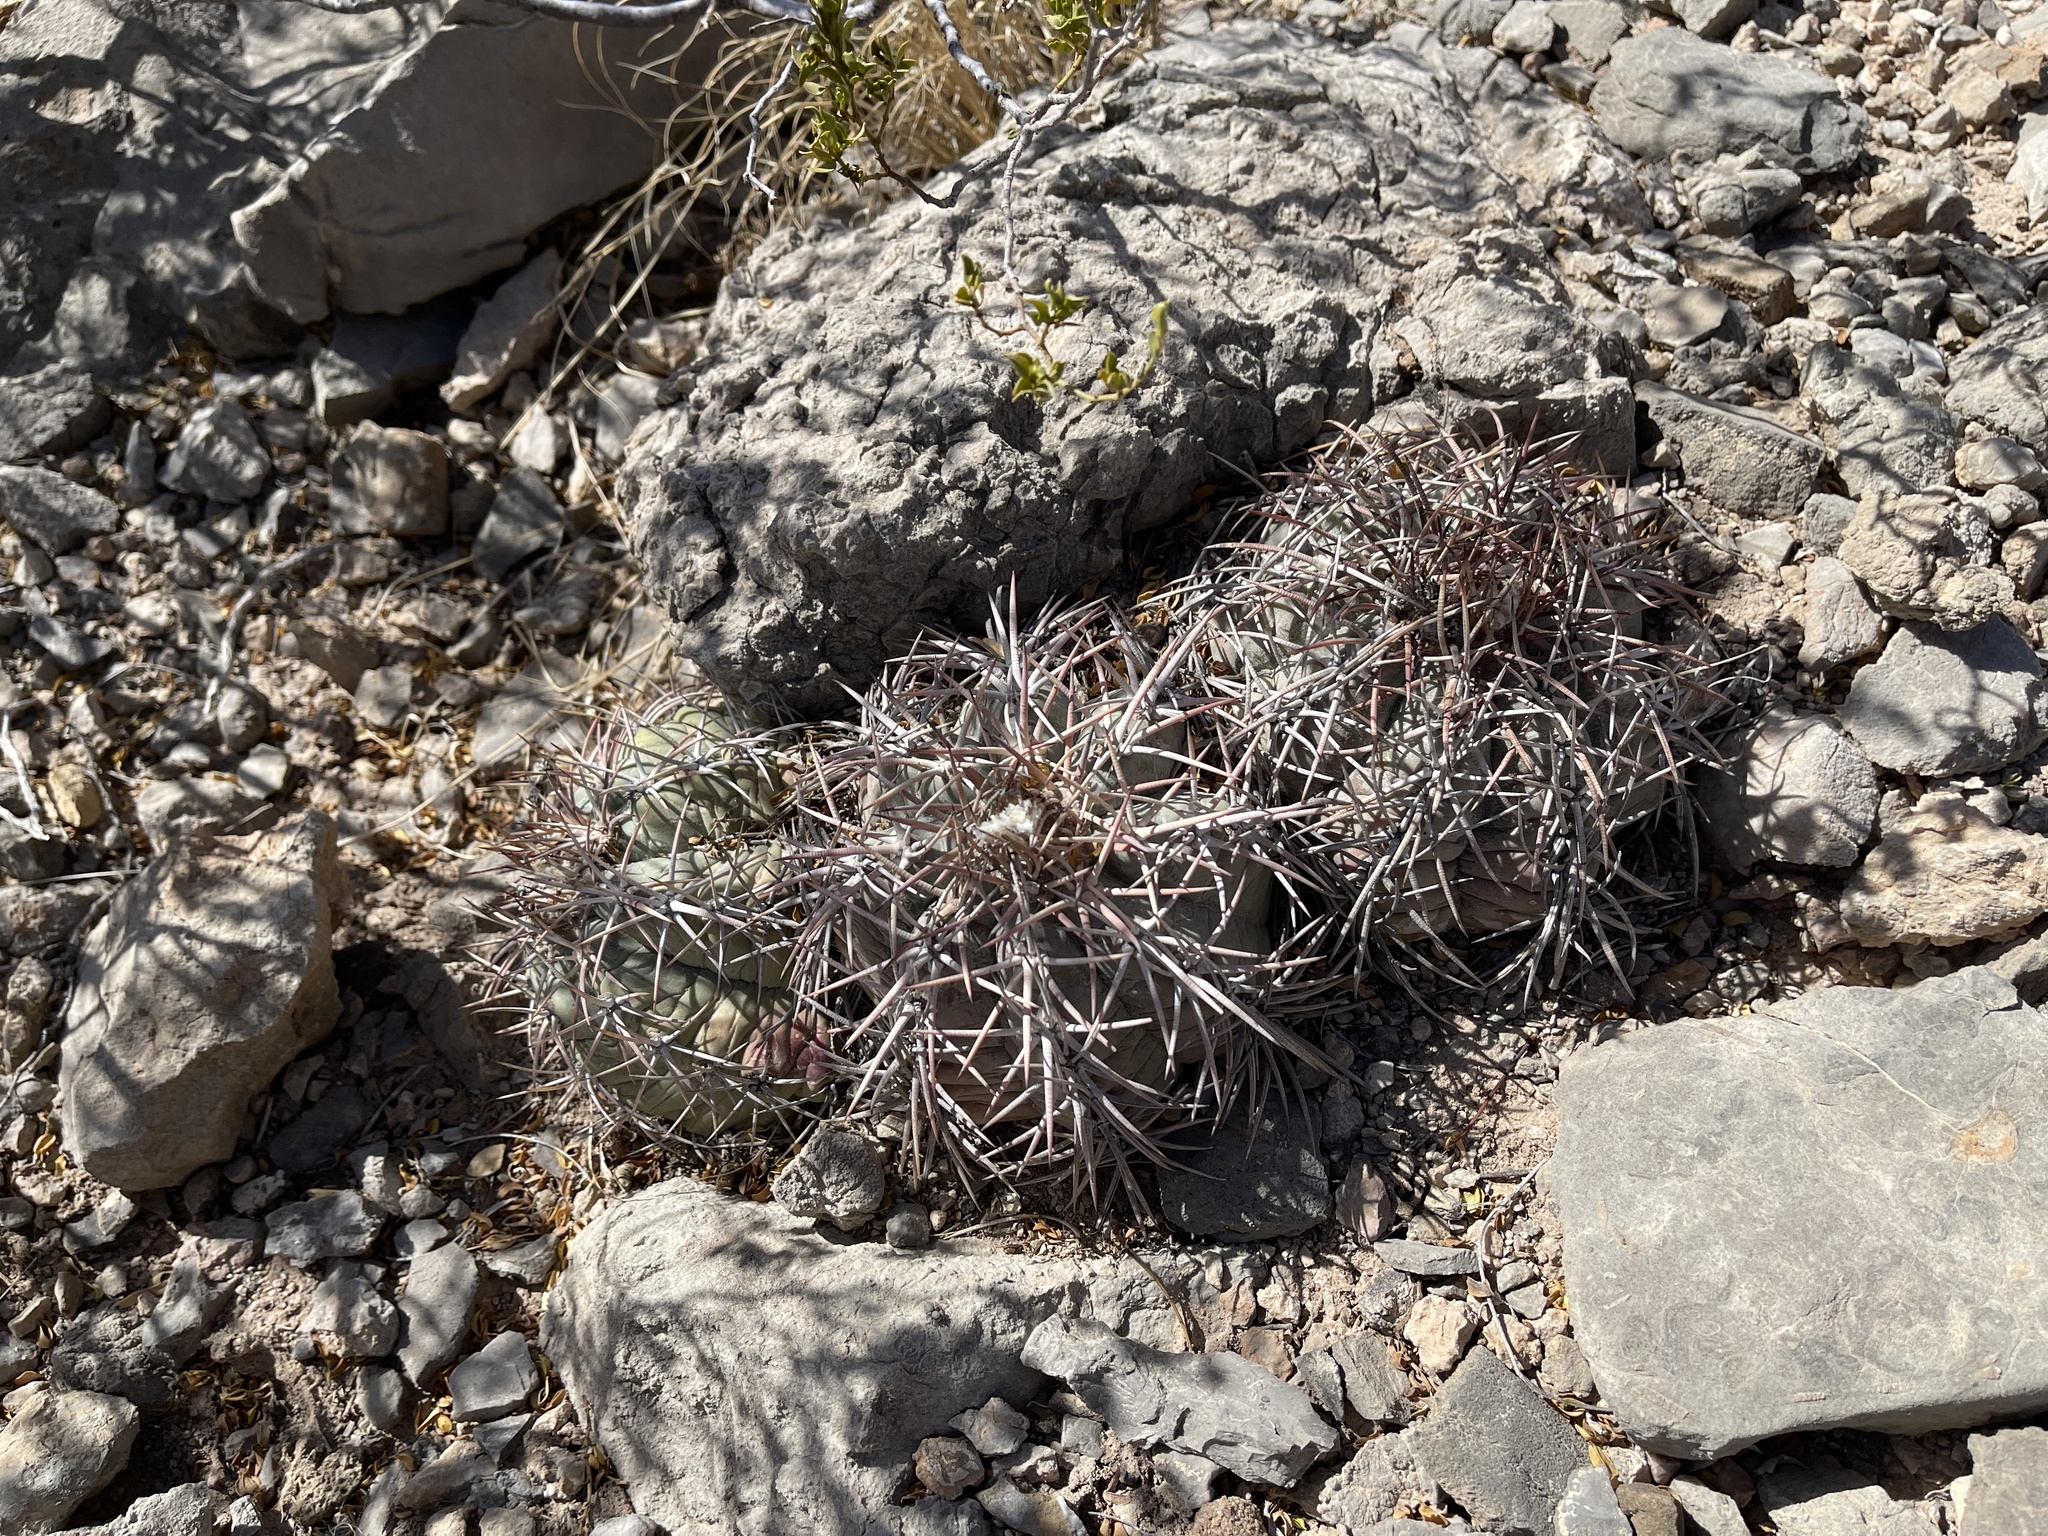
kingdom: Plantae
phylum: Tracheophyta
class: Magnoliopsida
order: Caryophyllales
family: Cactaceae
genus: Echinocactus
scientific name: Echinocactus horizonthalonius
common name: Devilshead
